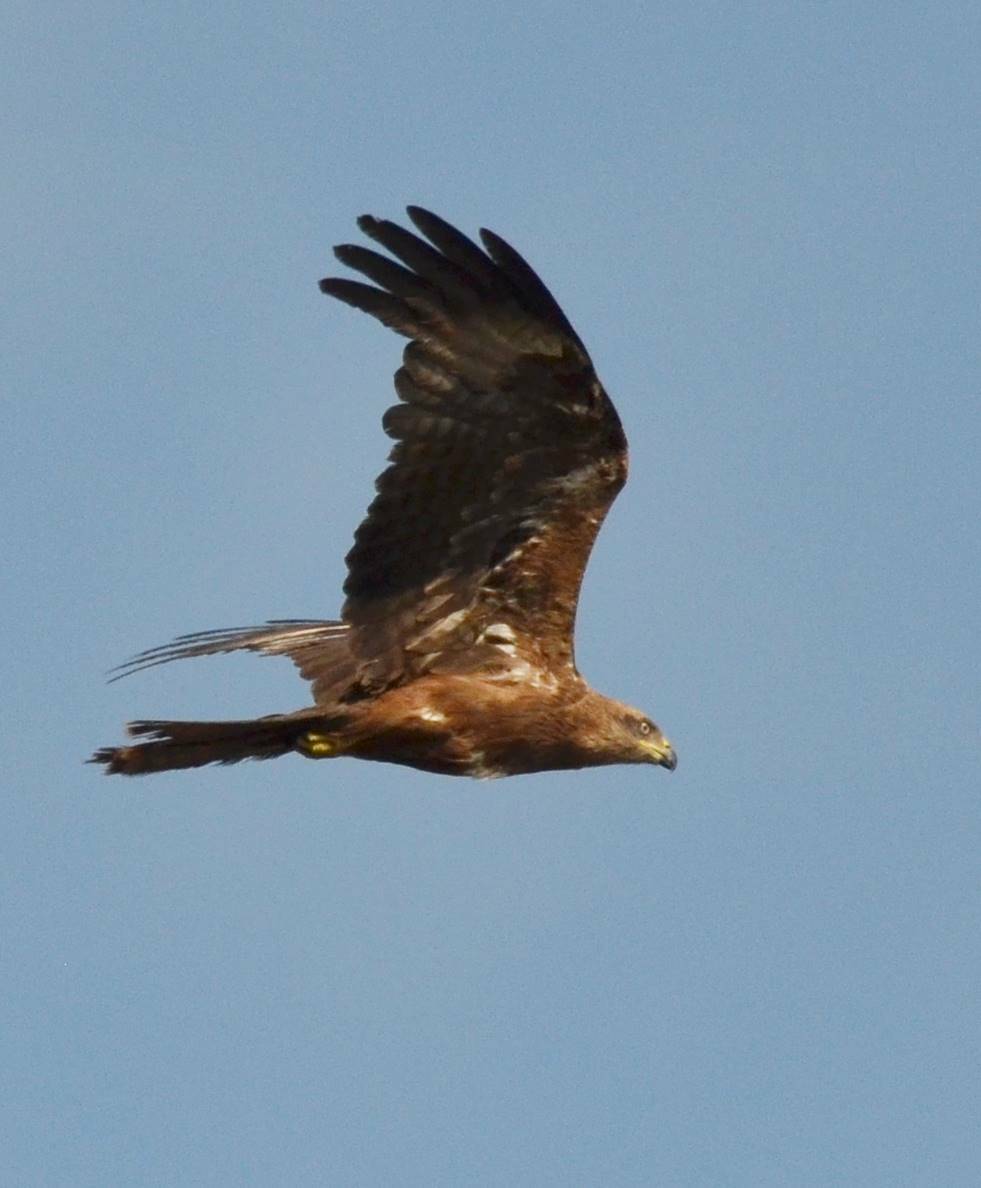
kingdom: Animalia
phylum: Chordata
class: Aves
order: Accipitriformes
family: Accipitridae
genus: Milvus
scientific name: Milvus migrans
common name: Black kite
